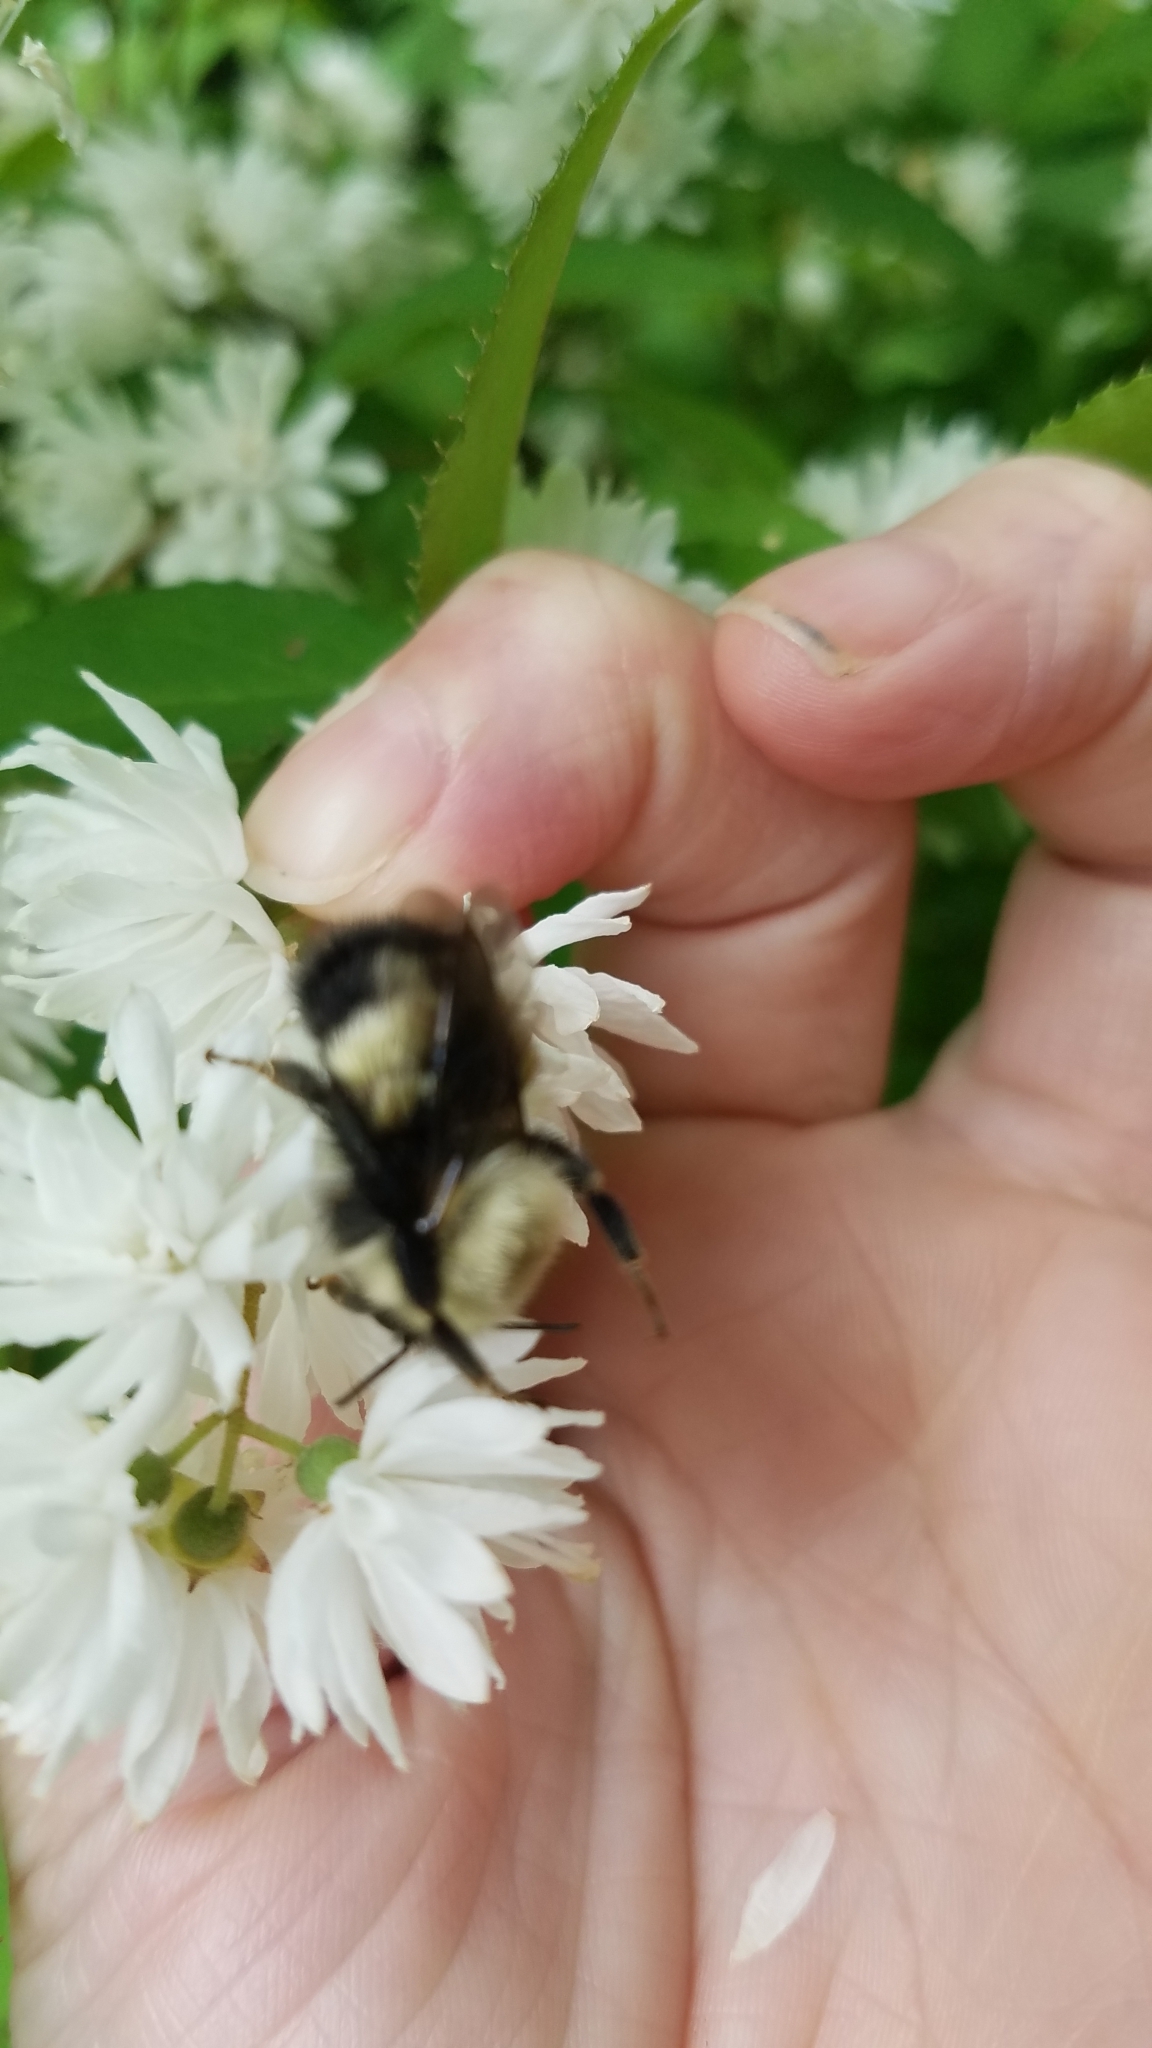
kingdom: Animalia
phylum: Arthropoda
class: Insecta
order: Hymenoptera
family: Apidae
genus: Pyrobombus
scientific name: Pyrobombus
